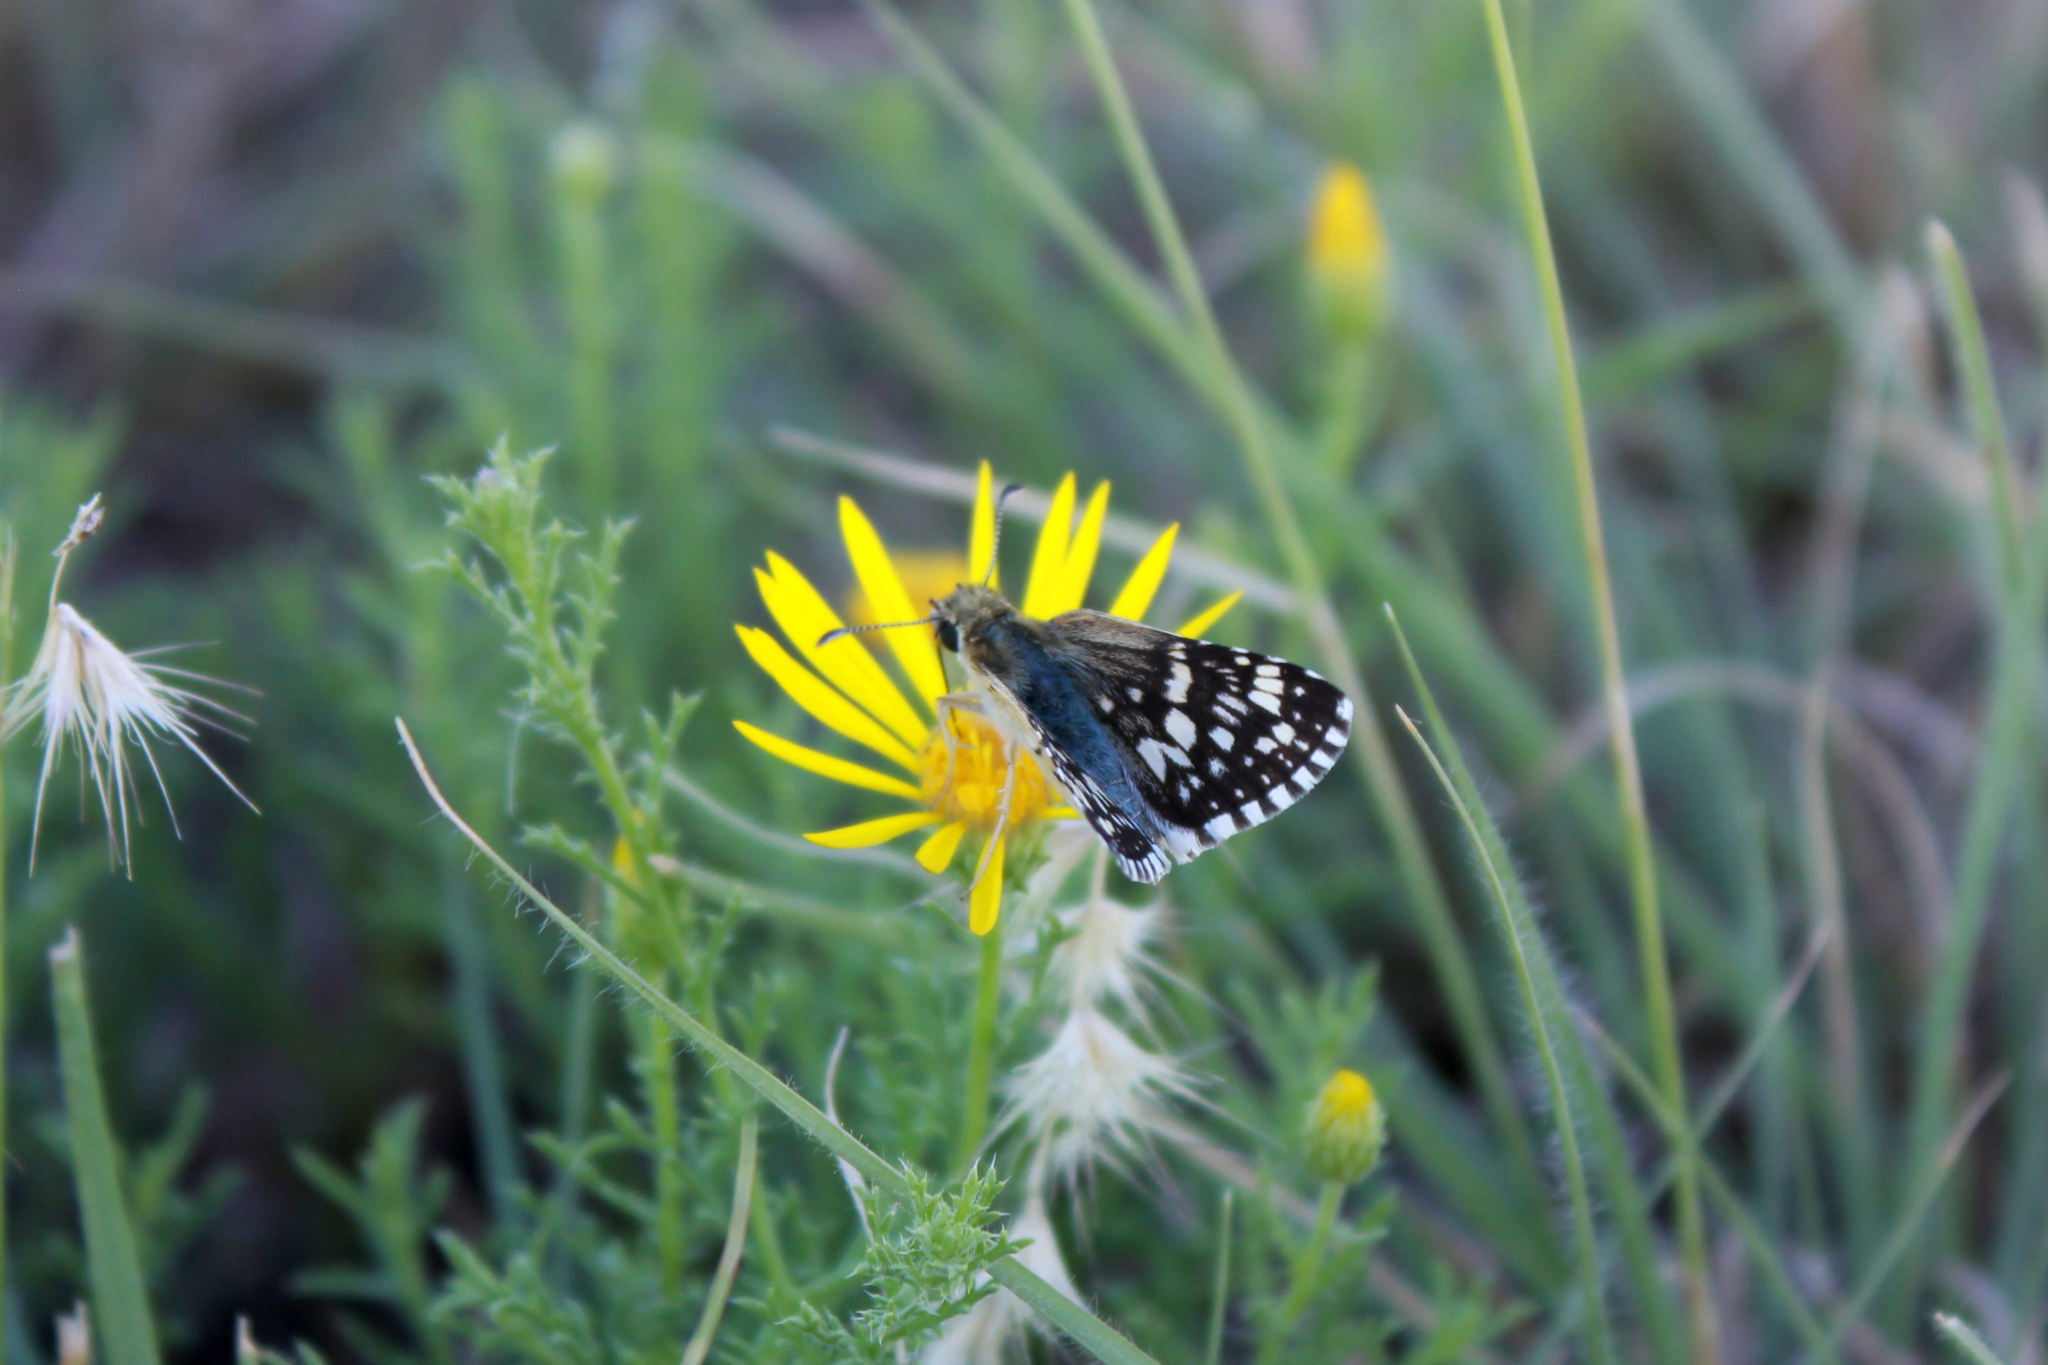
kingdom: Animalia
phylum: Arthropoda
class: Insecta
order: Lepidoptera
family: Hesperiidae
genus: Burnsius
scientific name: Burnsius communis
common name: Common checkered-skipper
